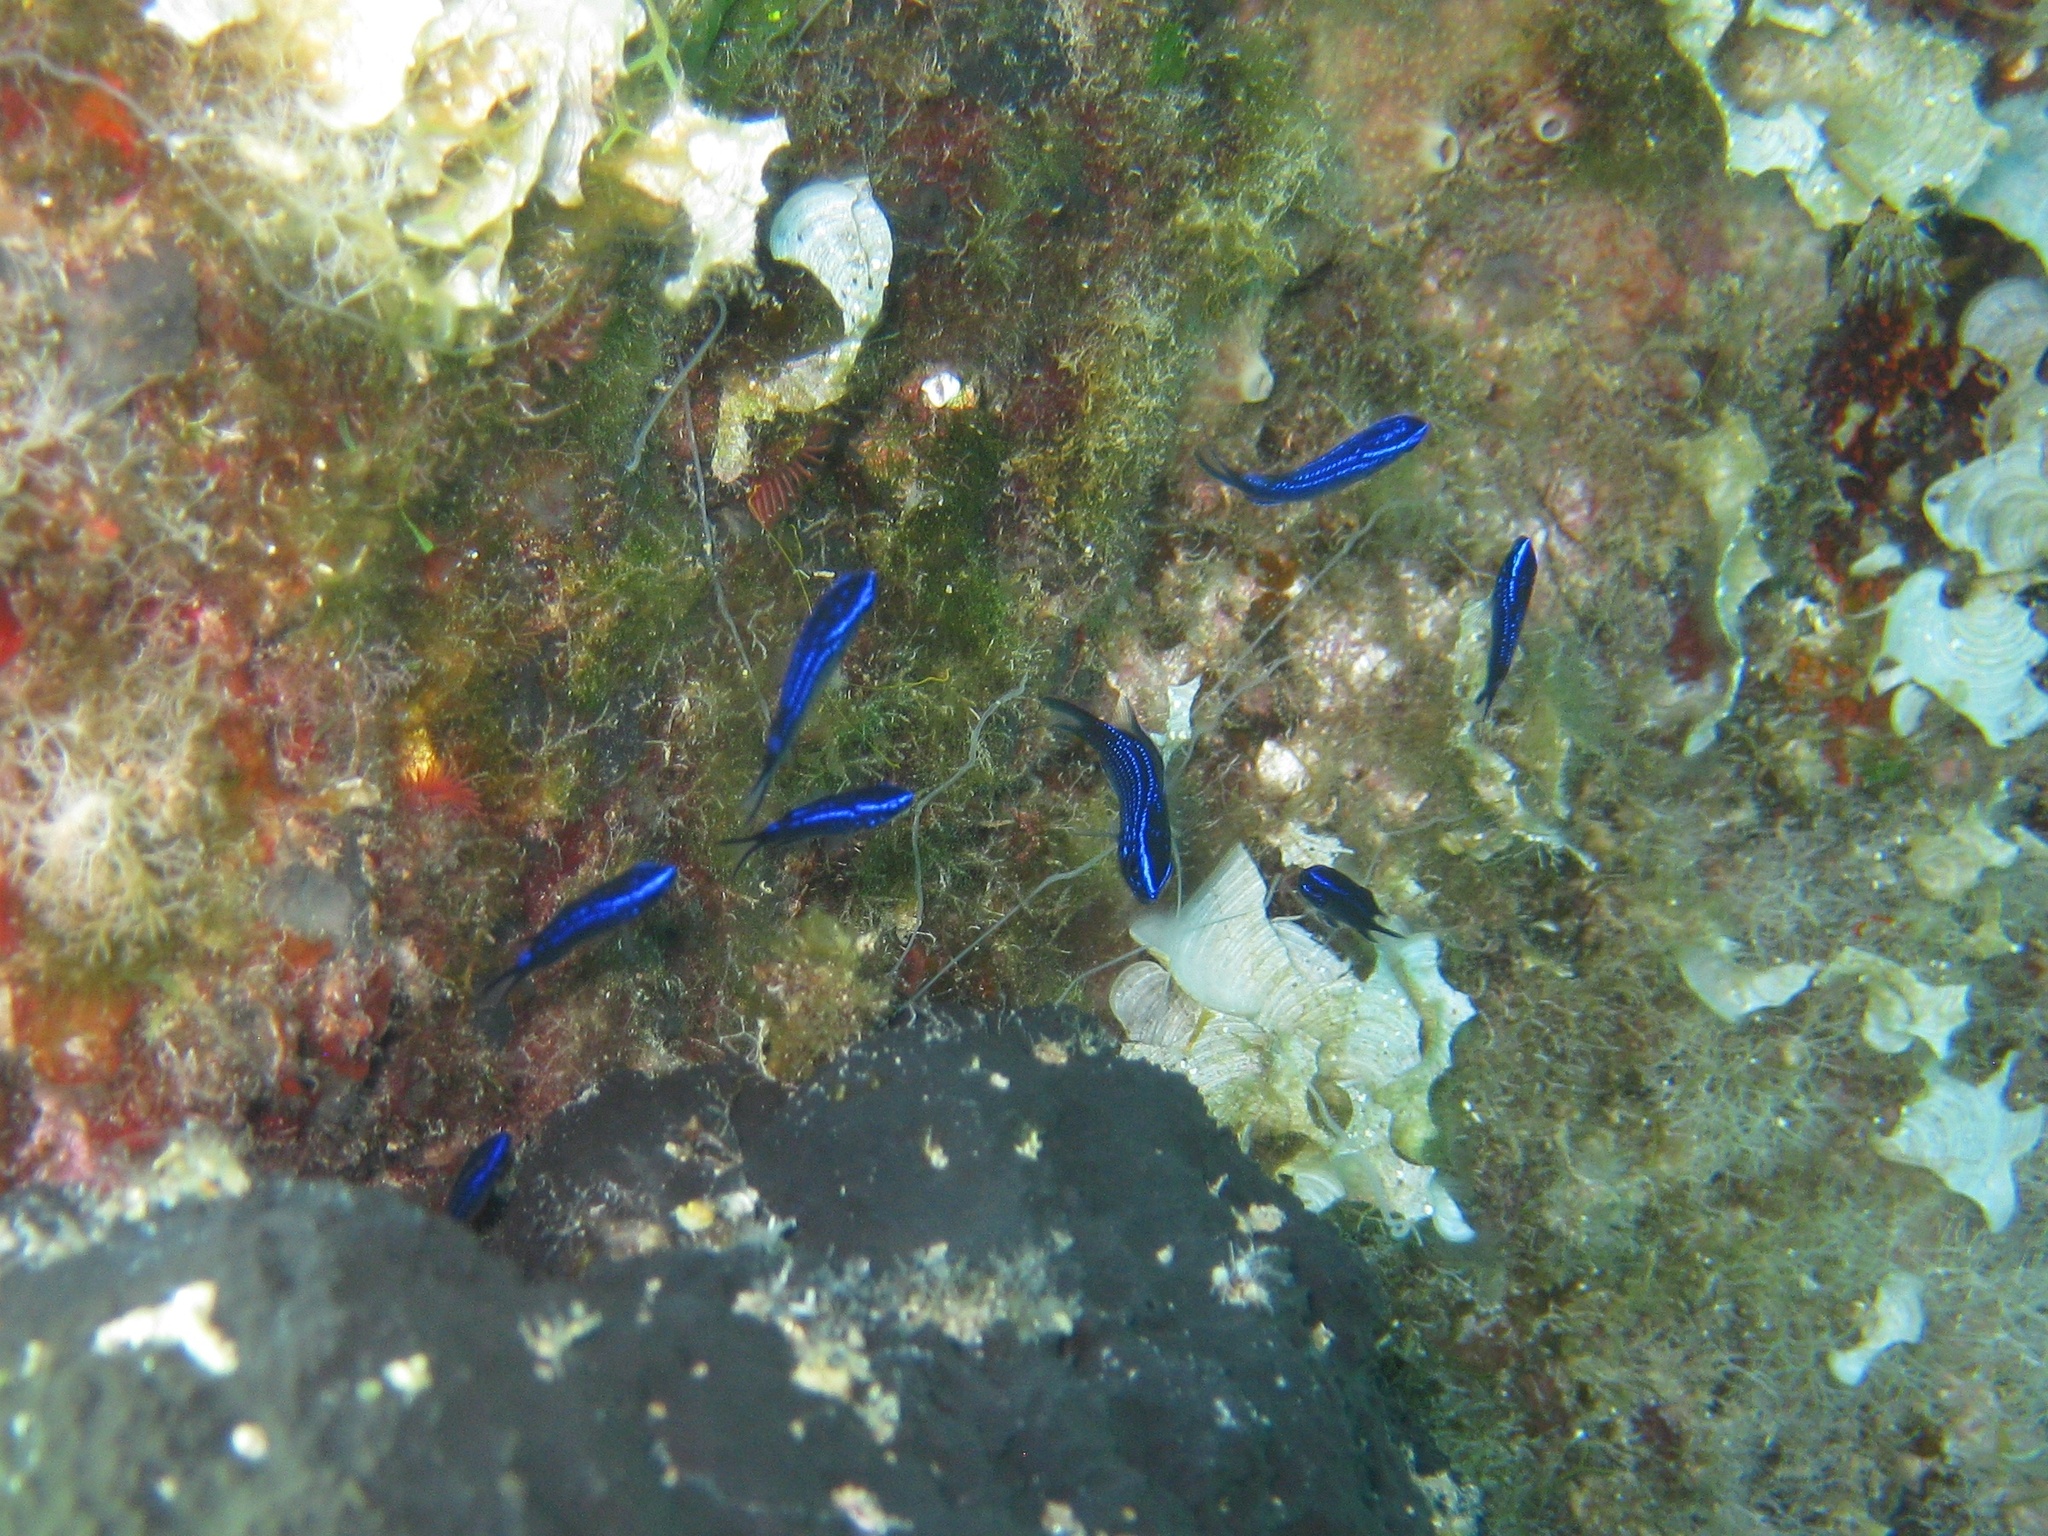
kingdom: Animalia
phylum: Chordata
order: Perciformes
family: Pomacentridae
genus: Chromis
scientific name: Chromis chromis
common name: Damselfish
